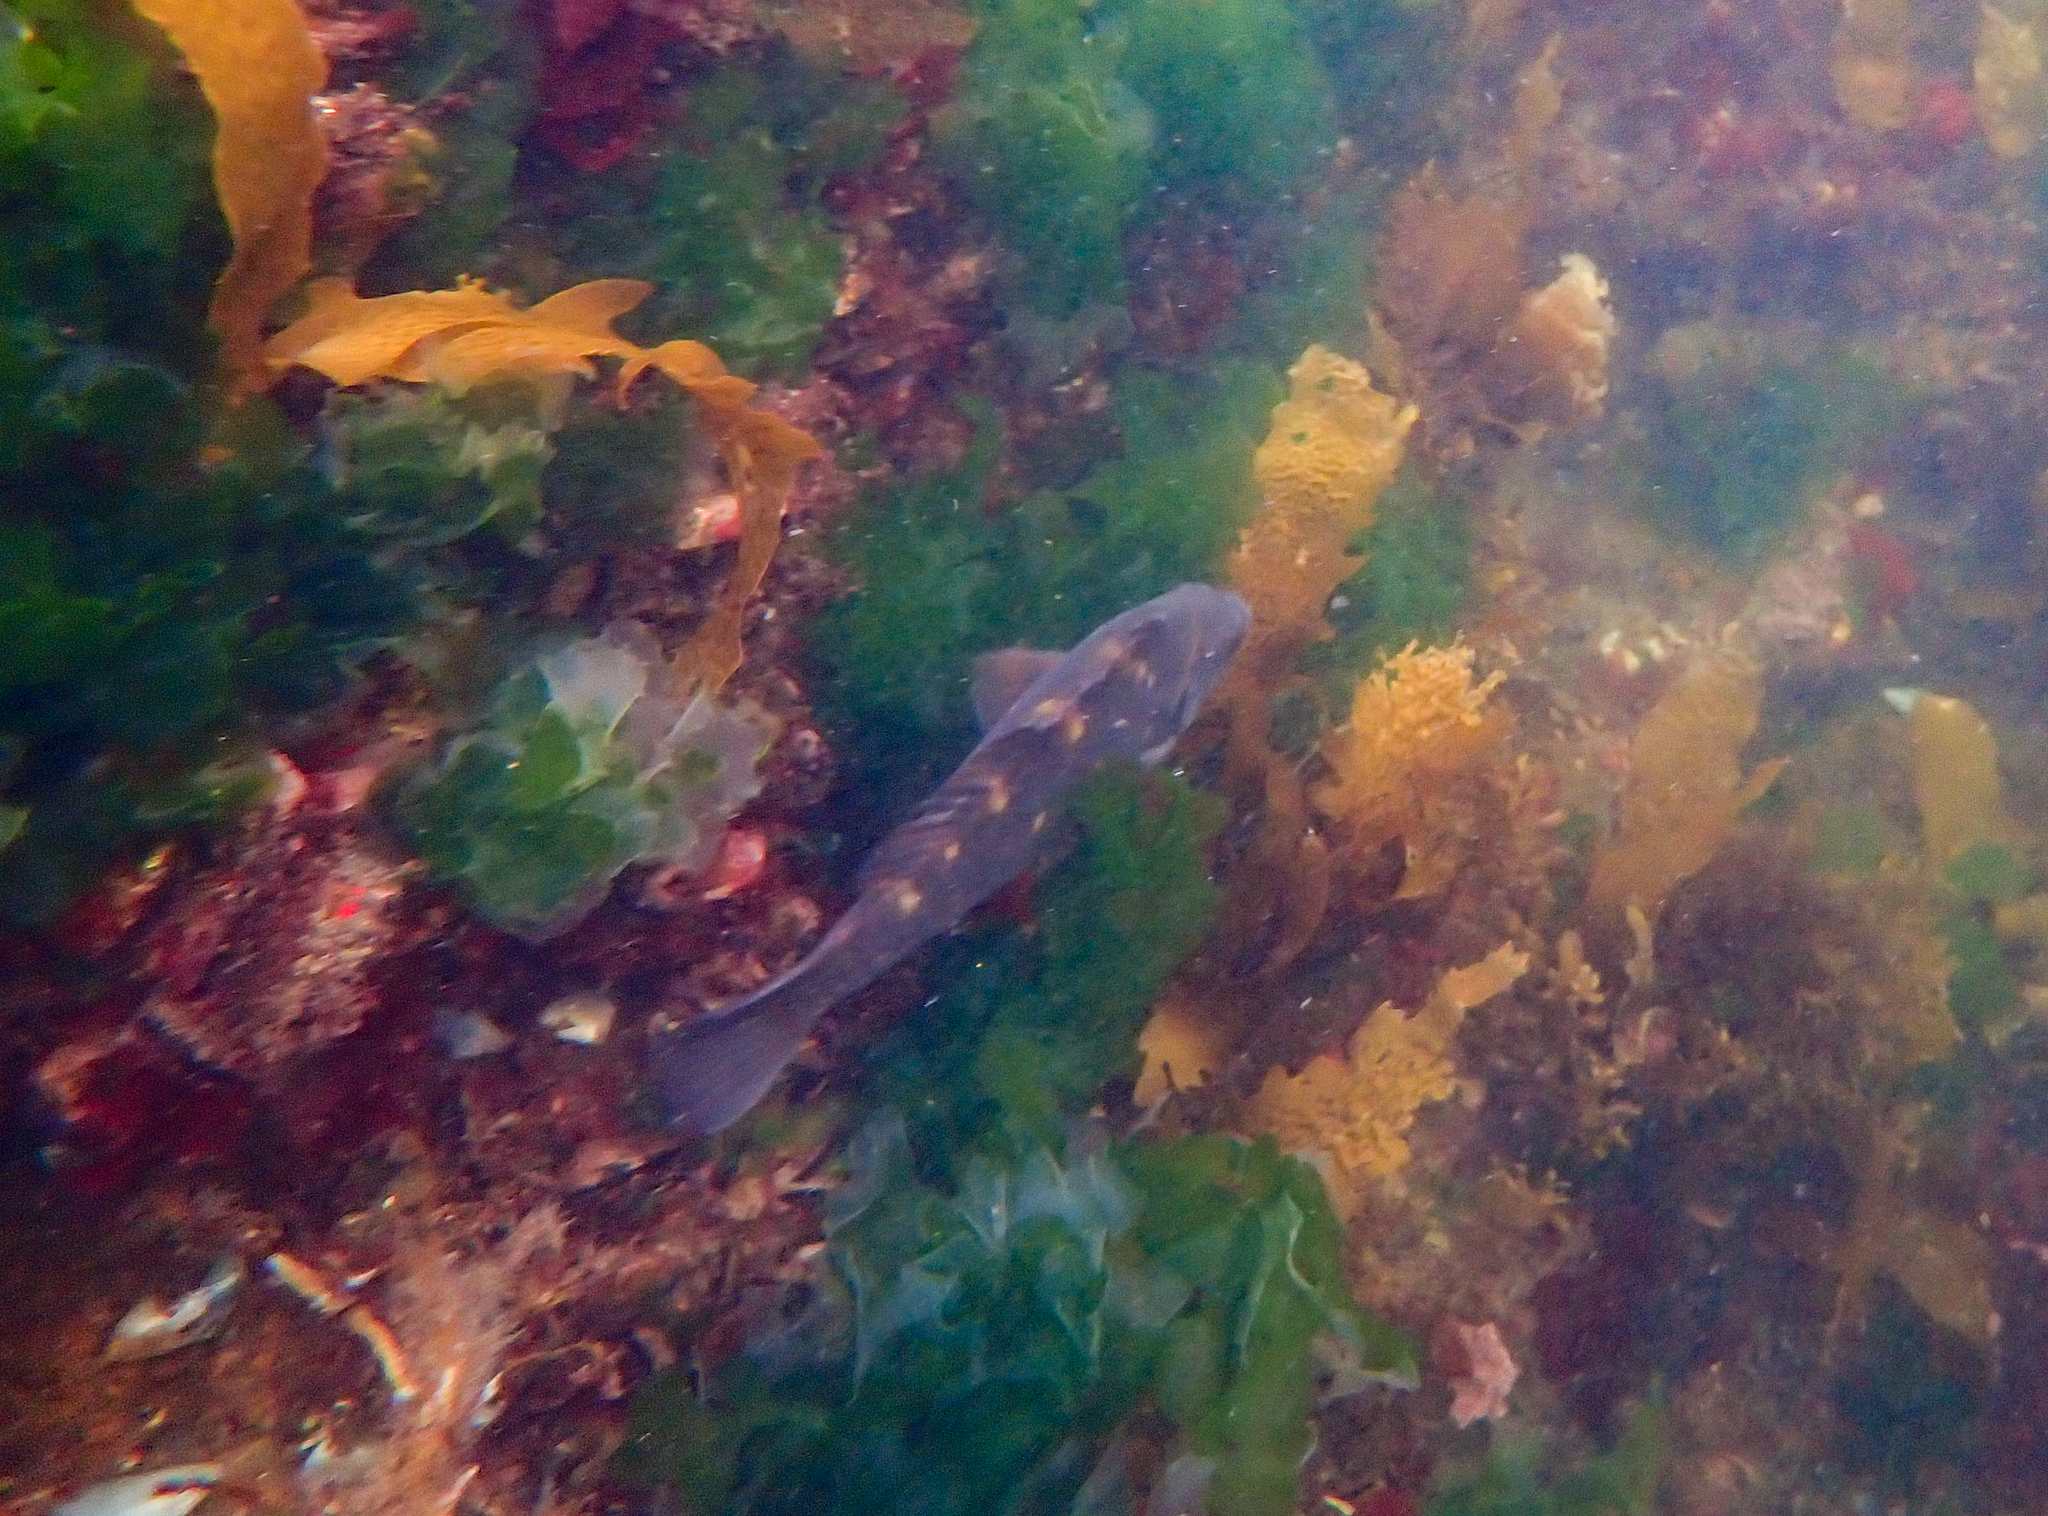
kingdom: Animalia
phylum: Chordata
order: Perciformes
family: Labridae
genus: Notolabrus
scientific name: Notolabrus fucicola
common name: Banded parrotfish
